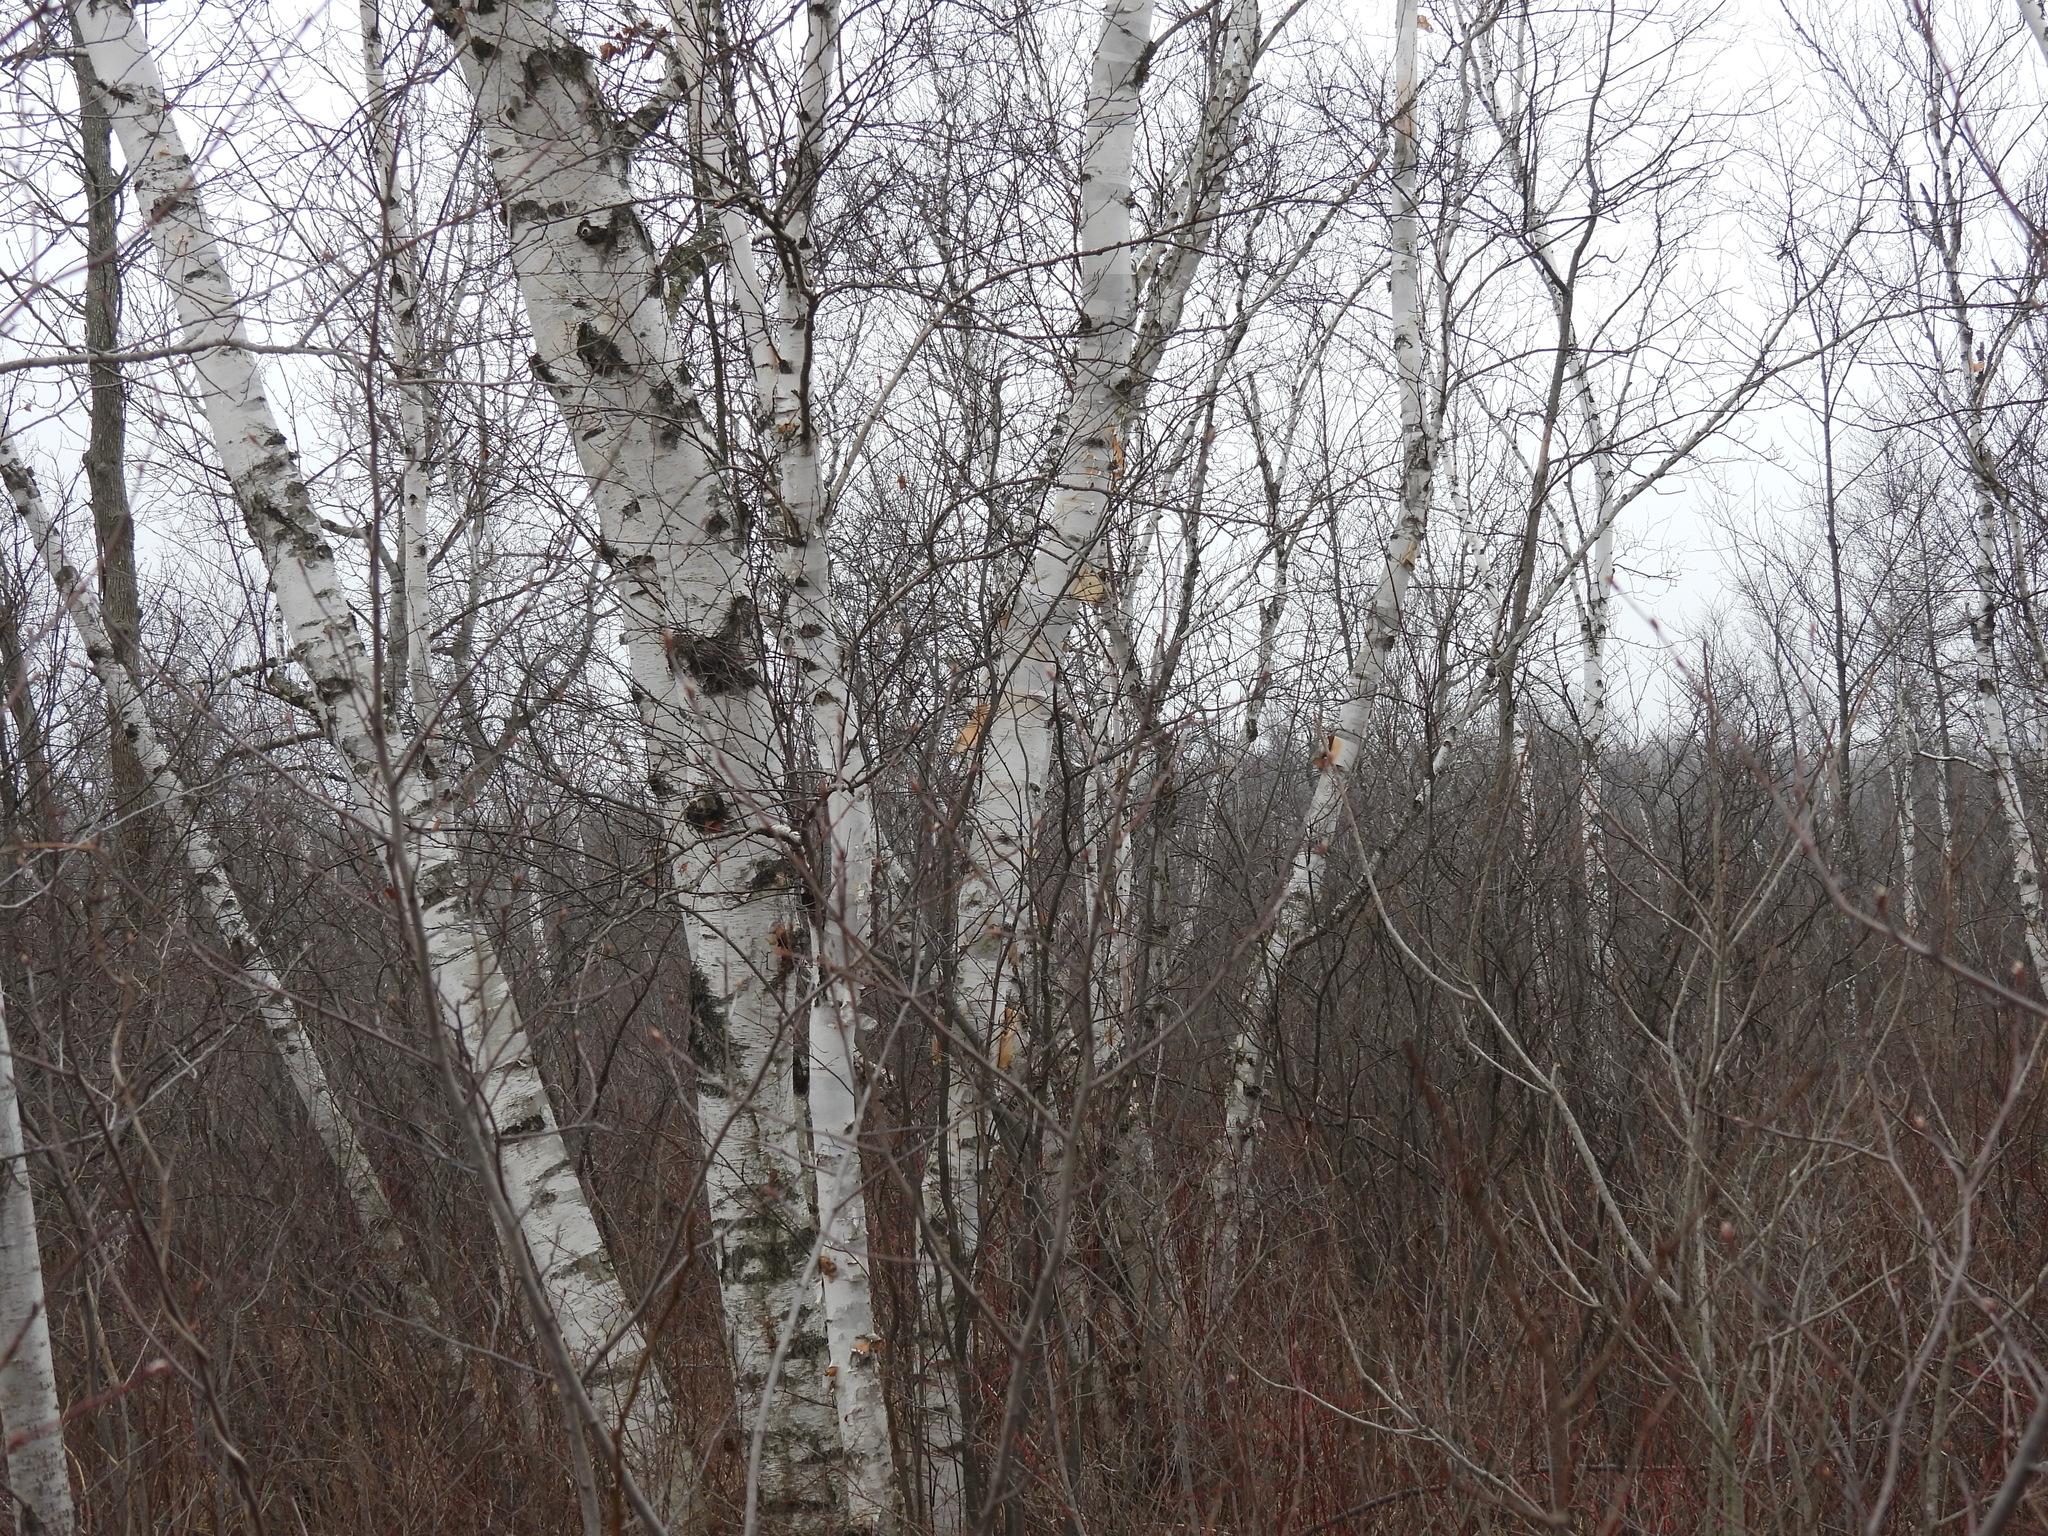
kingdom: Plantae
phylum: Tracheophyta
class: Magnoliopsida
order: Fagales
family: Betulaceae
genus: Betula
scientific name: Betula papyrifera
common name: Paper birch
